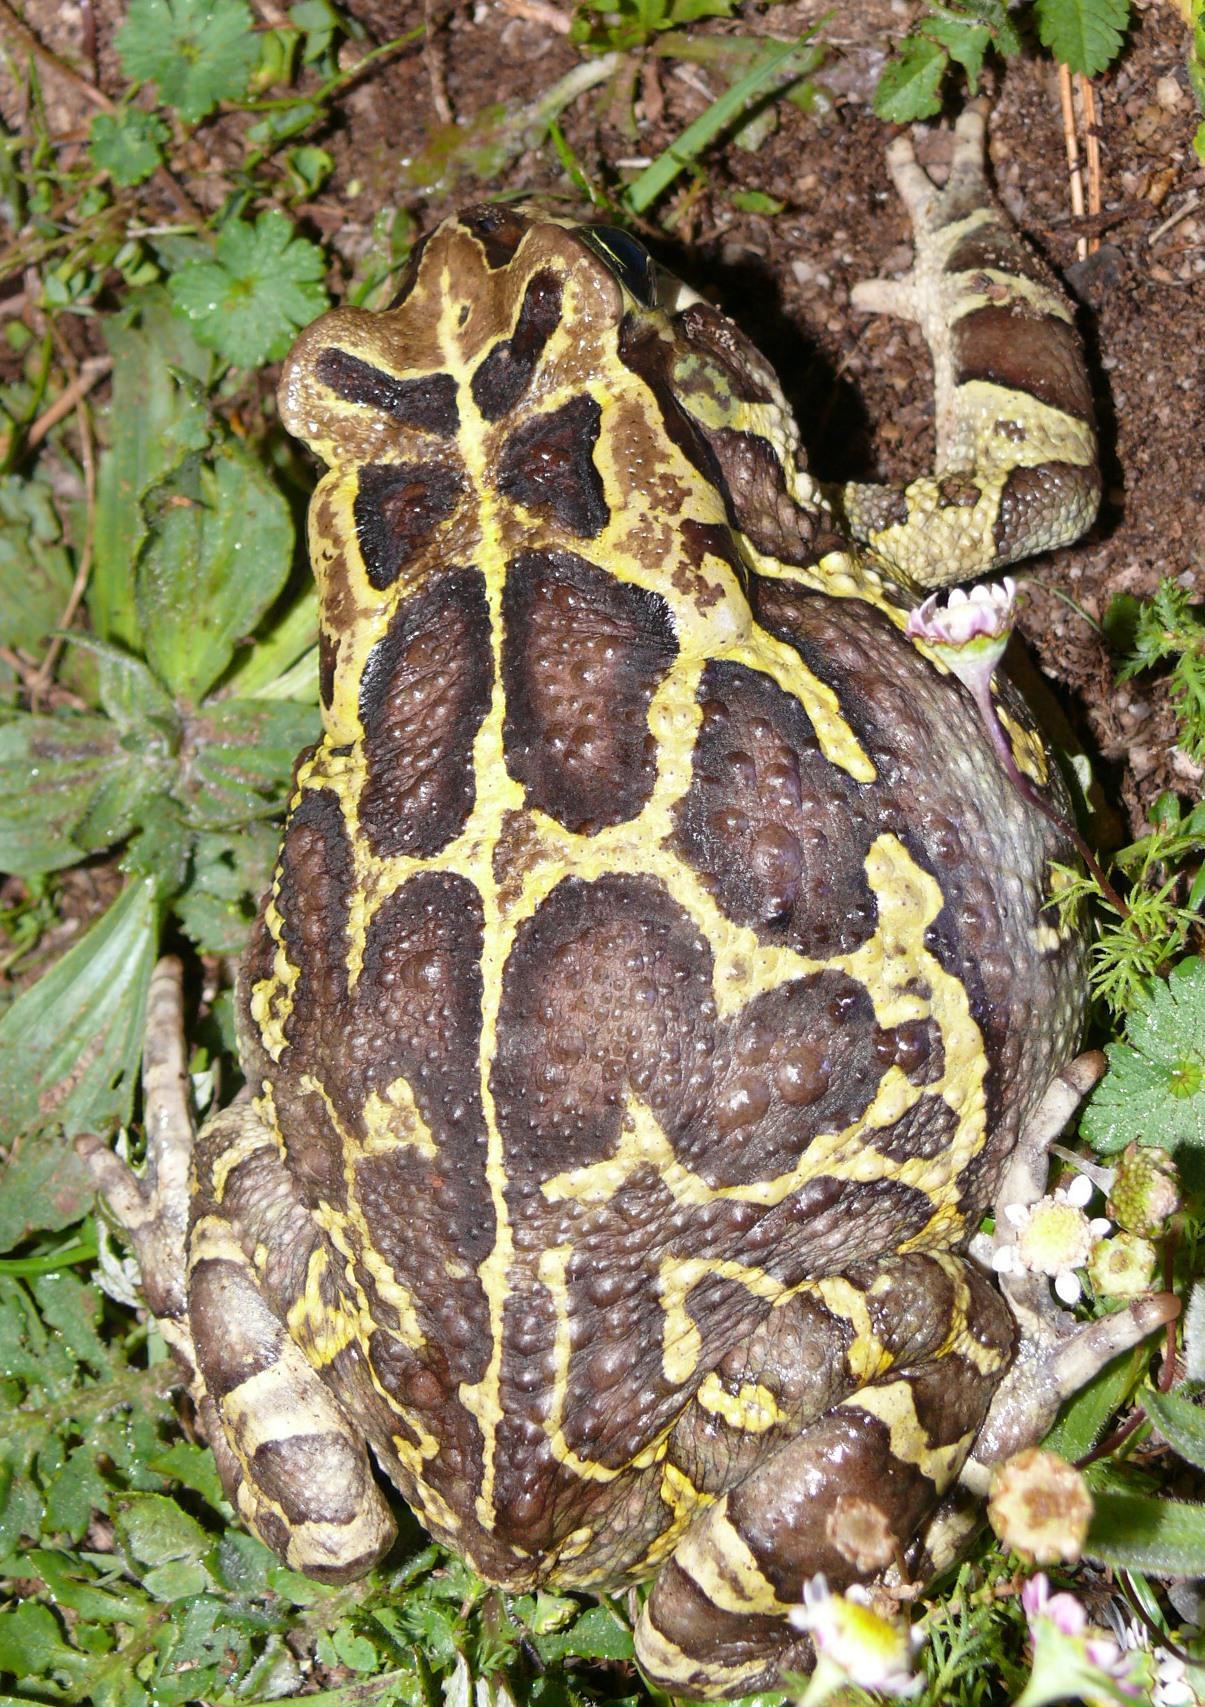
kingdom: Animalia
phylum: Chordata
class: Amphibia
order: Anura
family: Bufonidae
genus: Sclerophrys
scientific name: Sclerophrys pantherina
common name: Panther toad
